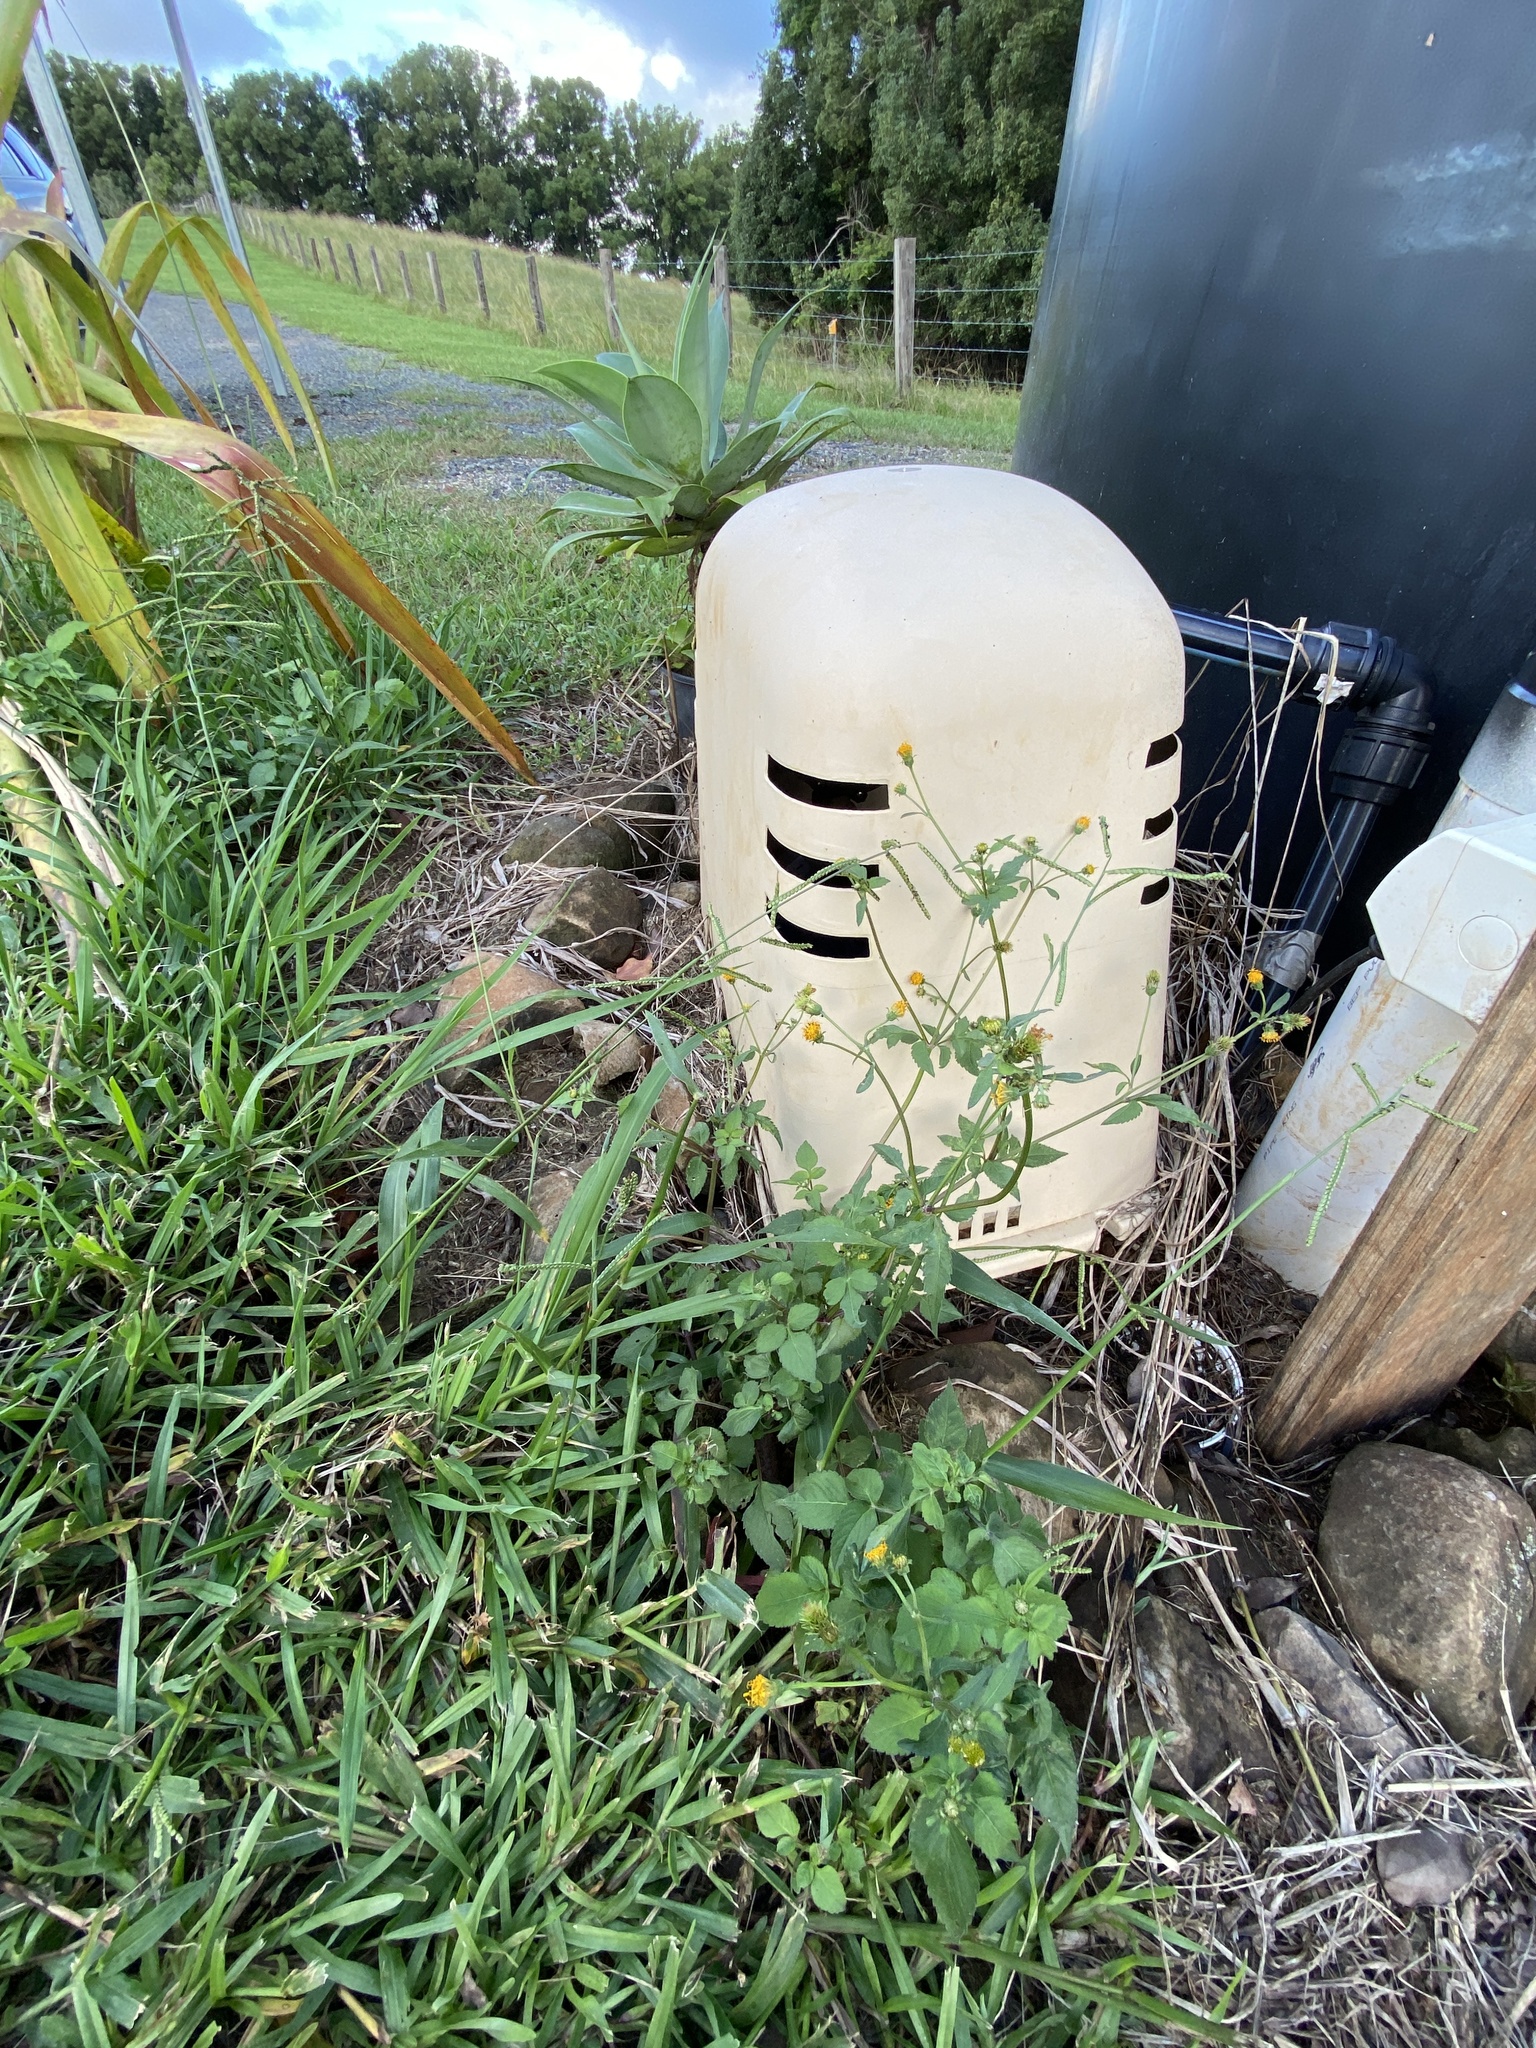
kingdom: Plantae
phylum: Tracheophyta
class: Magnoliopsida
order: Asterales
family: Asteraceae
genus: Bidens
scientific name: Bidens pilosa
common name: Black-jack
